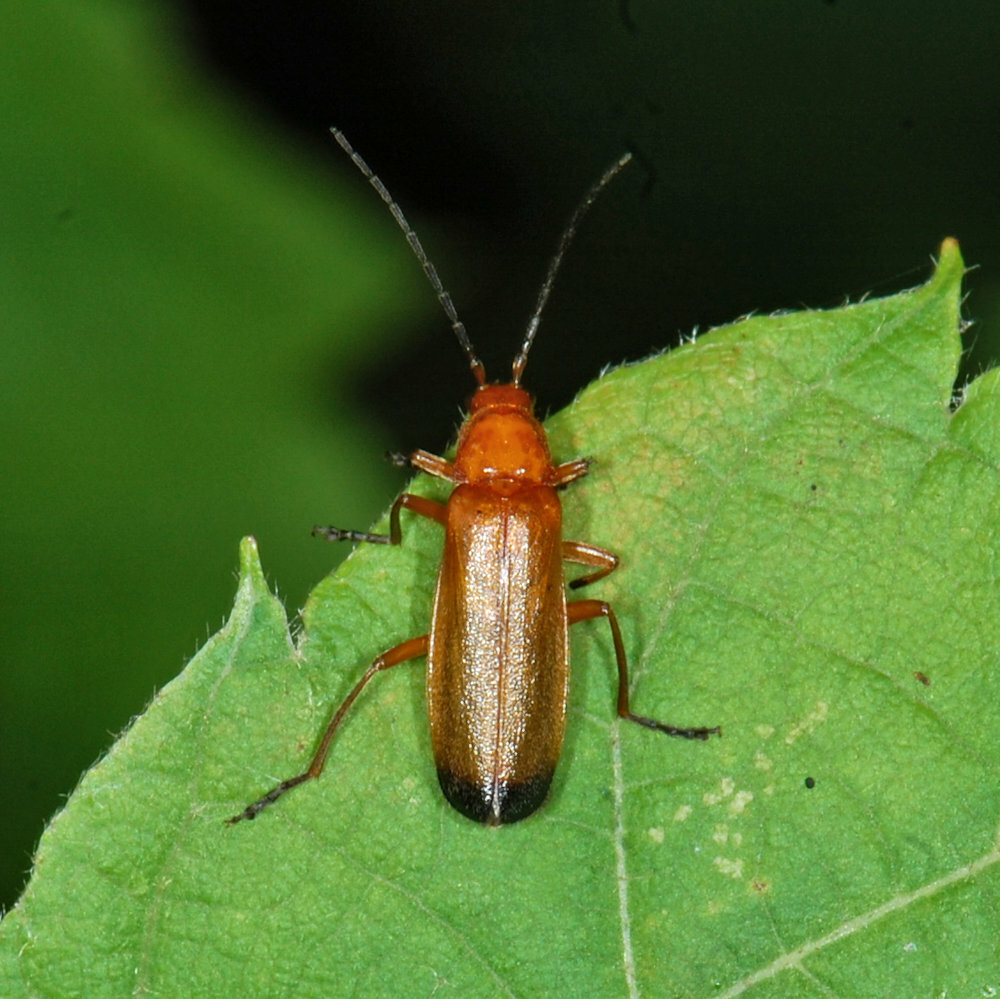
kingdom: Animalia
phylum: Arthropoda
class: Insecta
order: Coleoptera
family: Cantharidae
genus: Rhagonycha
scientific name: Rhagonycha fulva
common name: Common red soldier beetle
